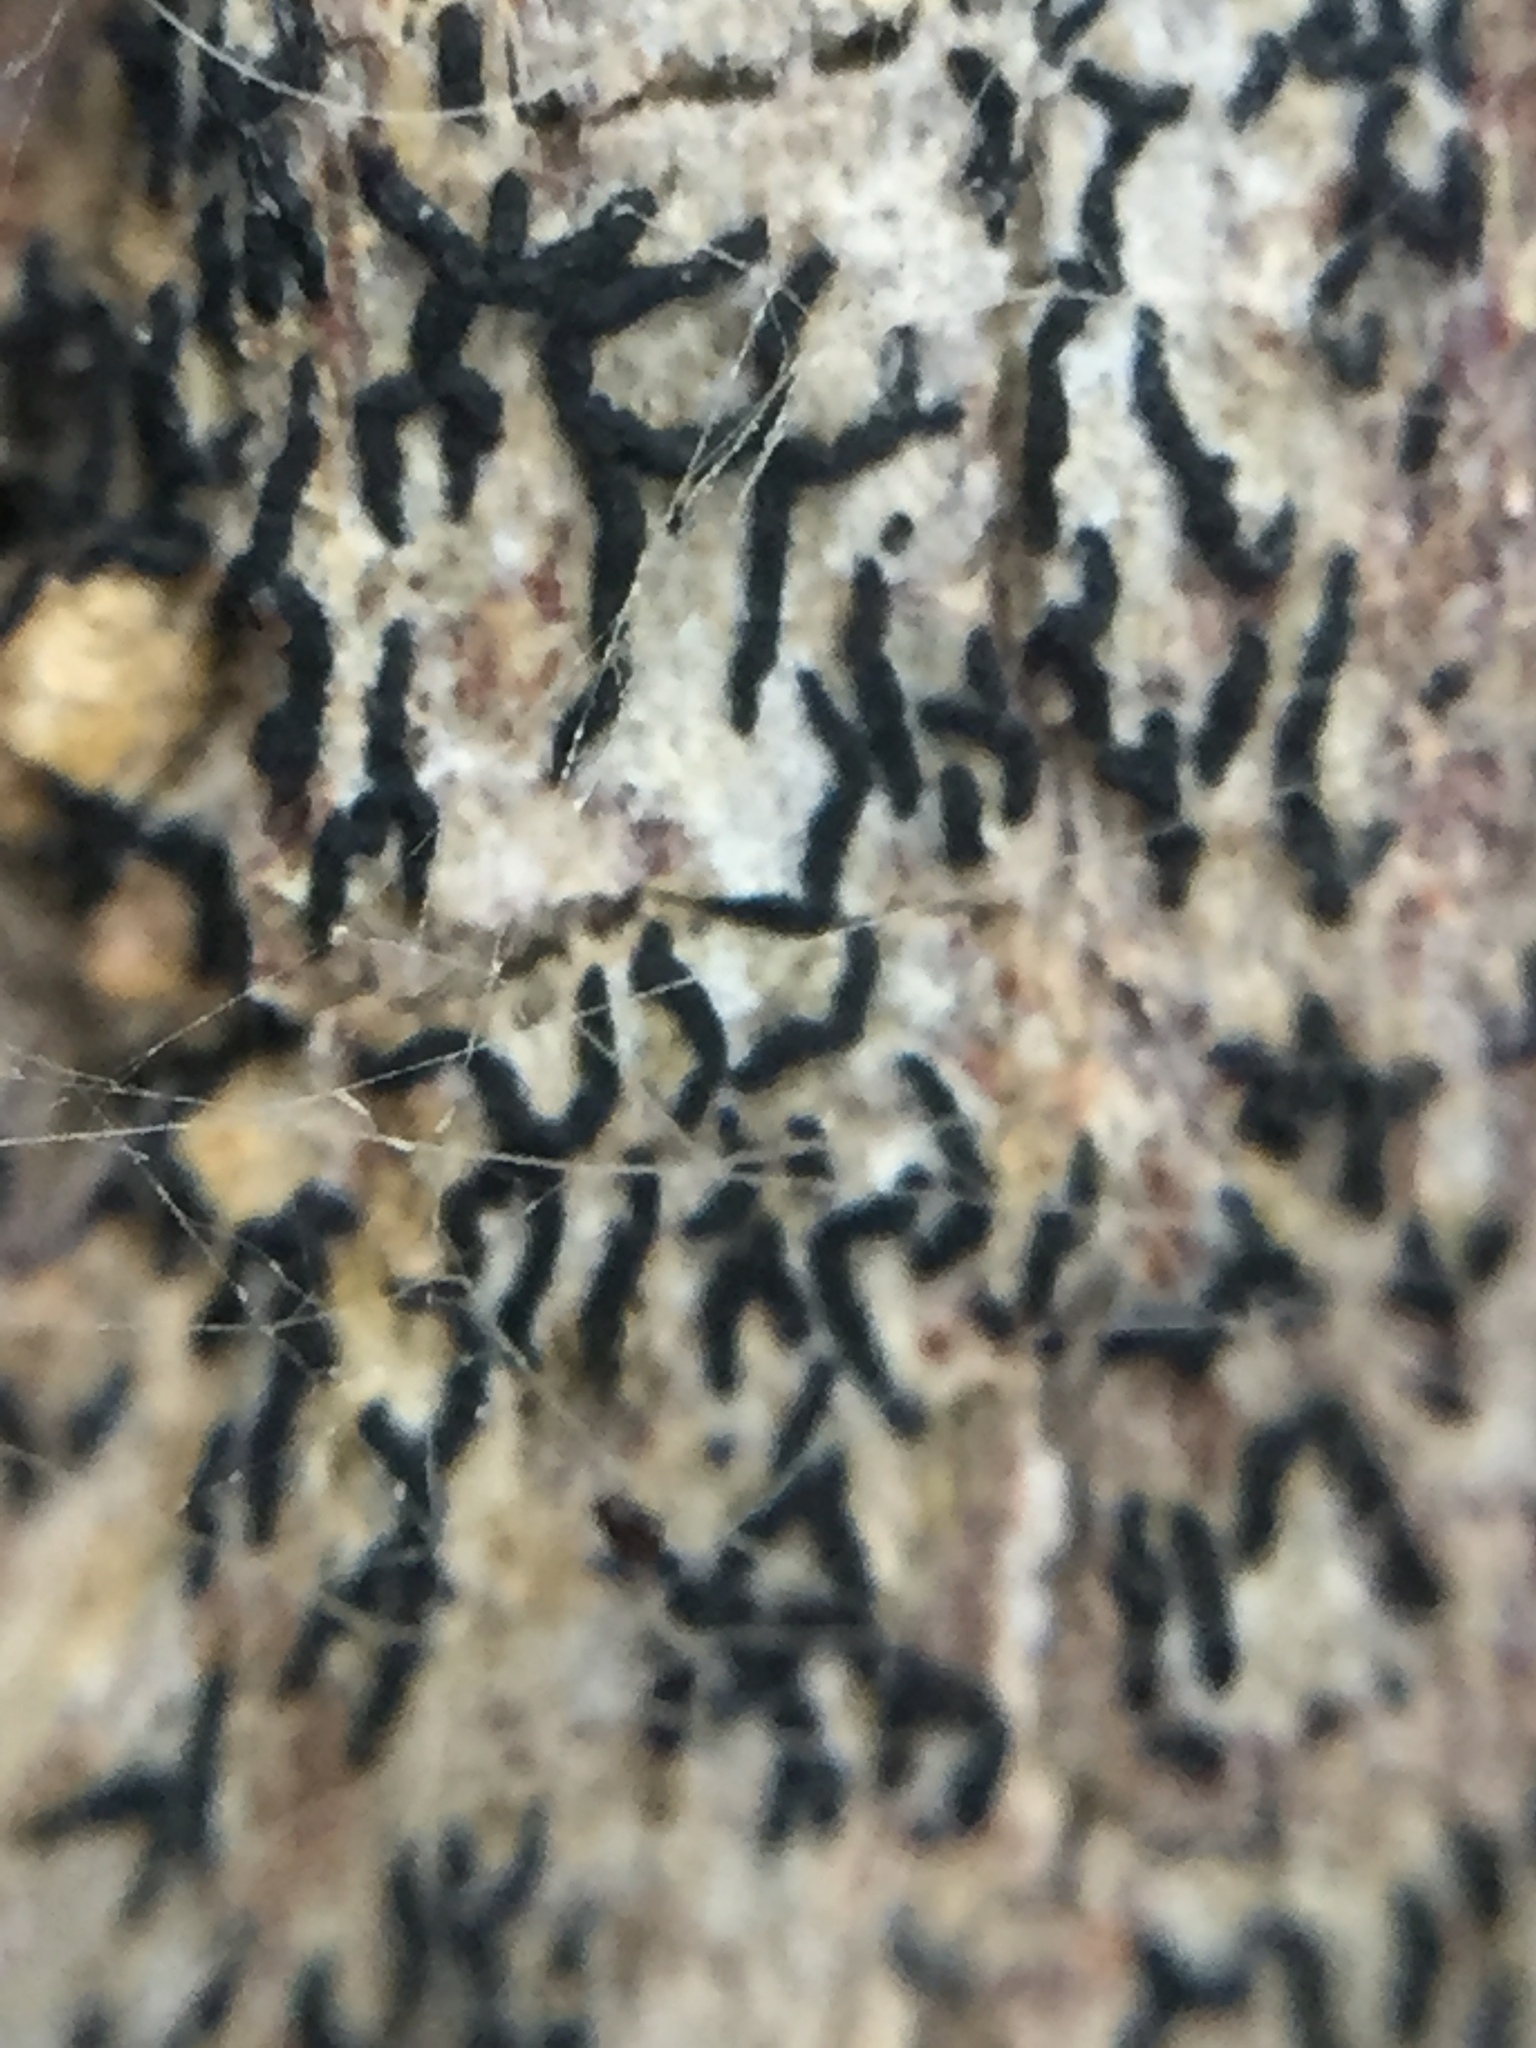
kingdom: Fungi
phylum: Ascomycota
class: Arthoniomycetes
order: Arthoniales
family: Opegraphaceae
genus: Opegrapha
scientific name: Opegrapha intertexta
